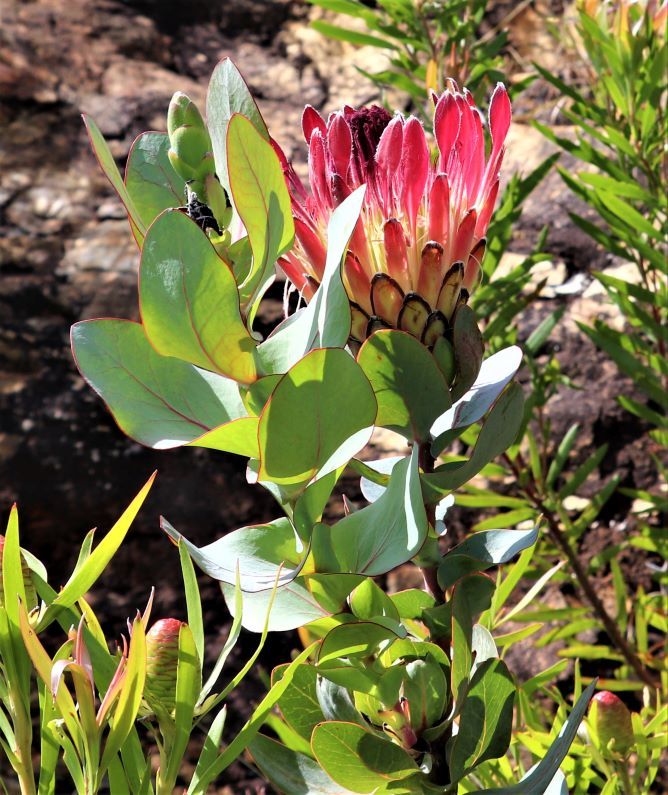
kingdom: Plantae
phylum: Tracheophyta
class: Magnoliopsida
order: Proteales
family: Proteaceae
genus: Protea
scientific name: Protea eximia
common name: Broad-leaved sugarbush
